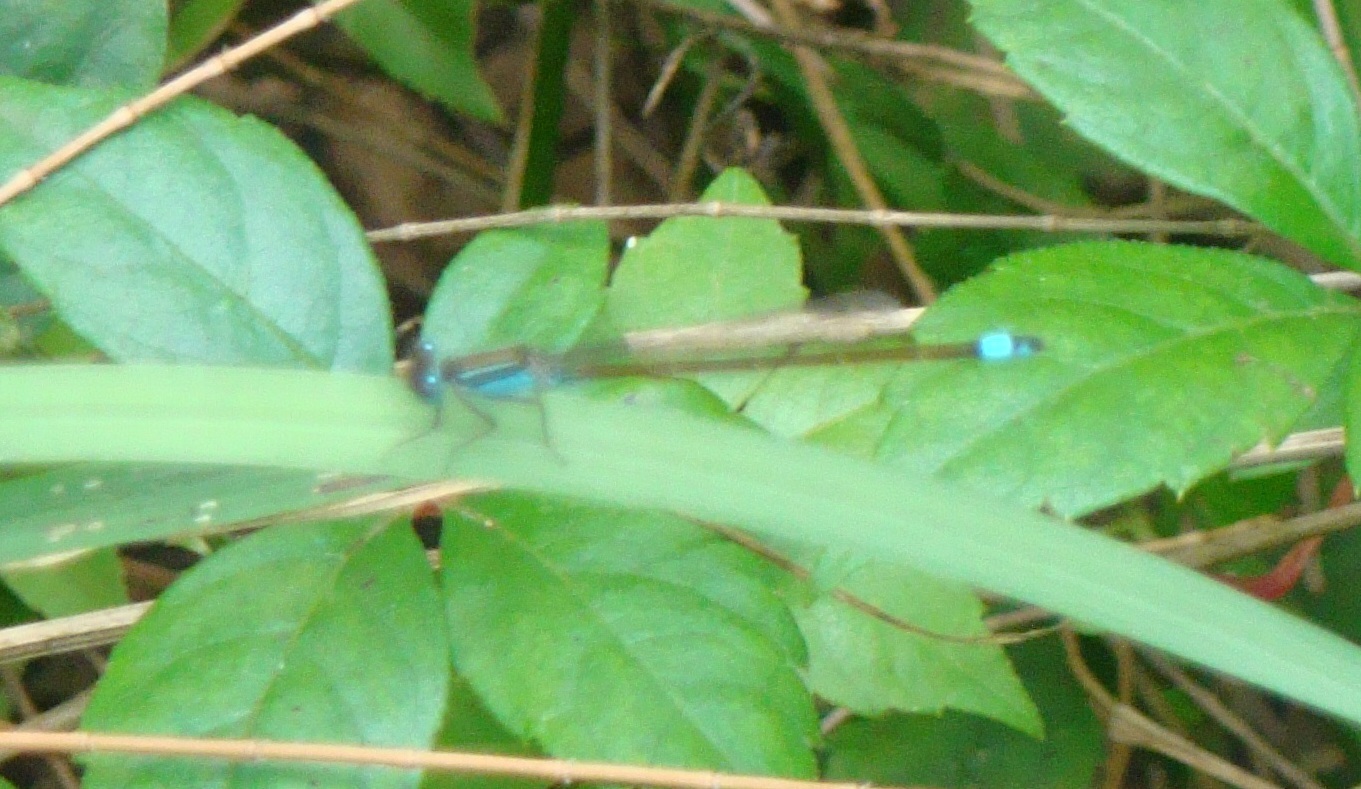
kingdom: Animalia
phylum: Arthropoda
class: Insecta
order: Odonata
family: Coenagrionidae
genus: Ischnura
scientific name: Ischnura ramburii
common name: Rambur's forktail
